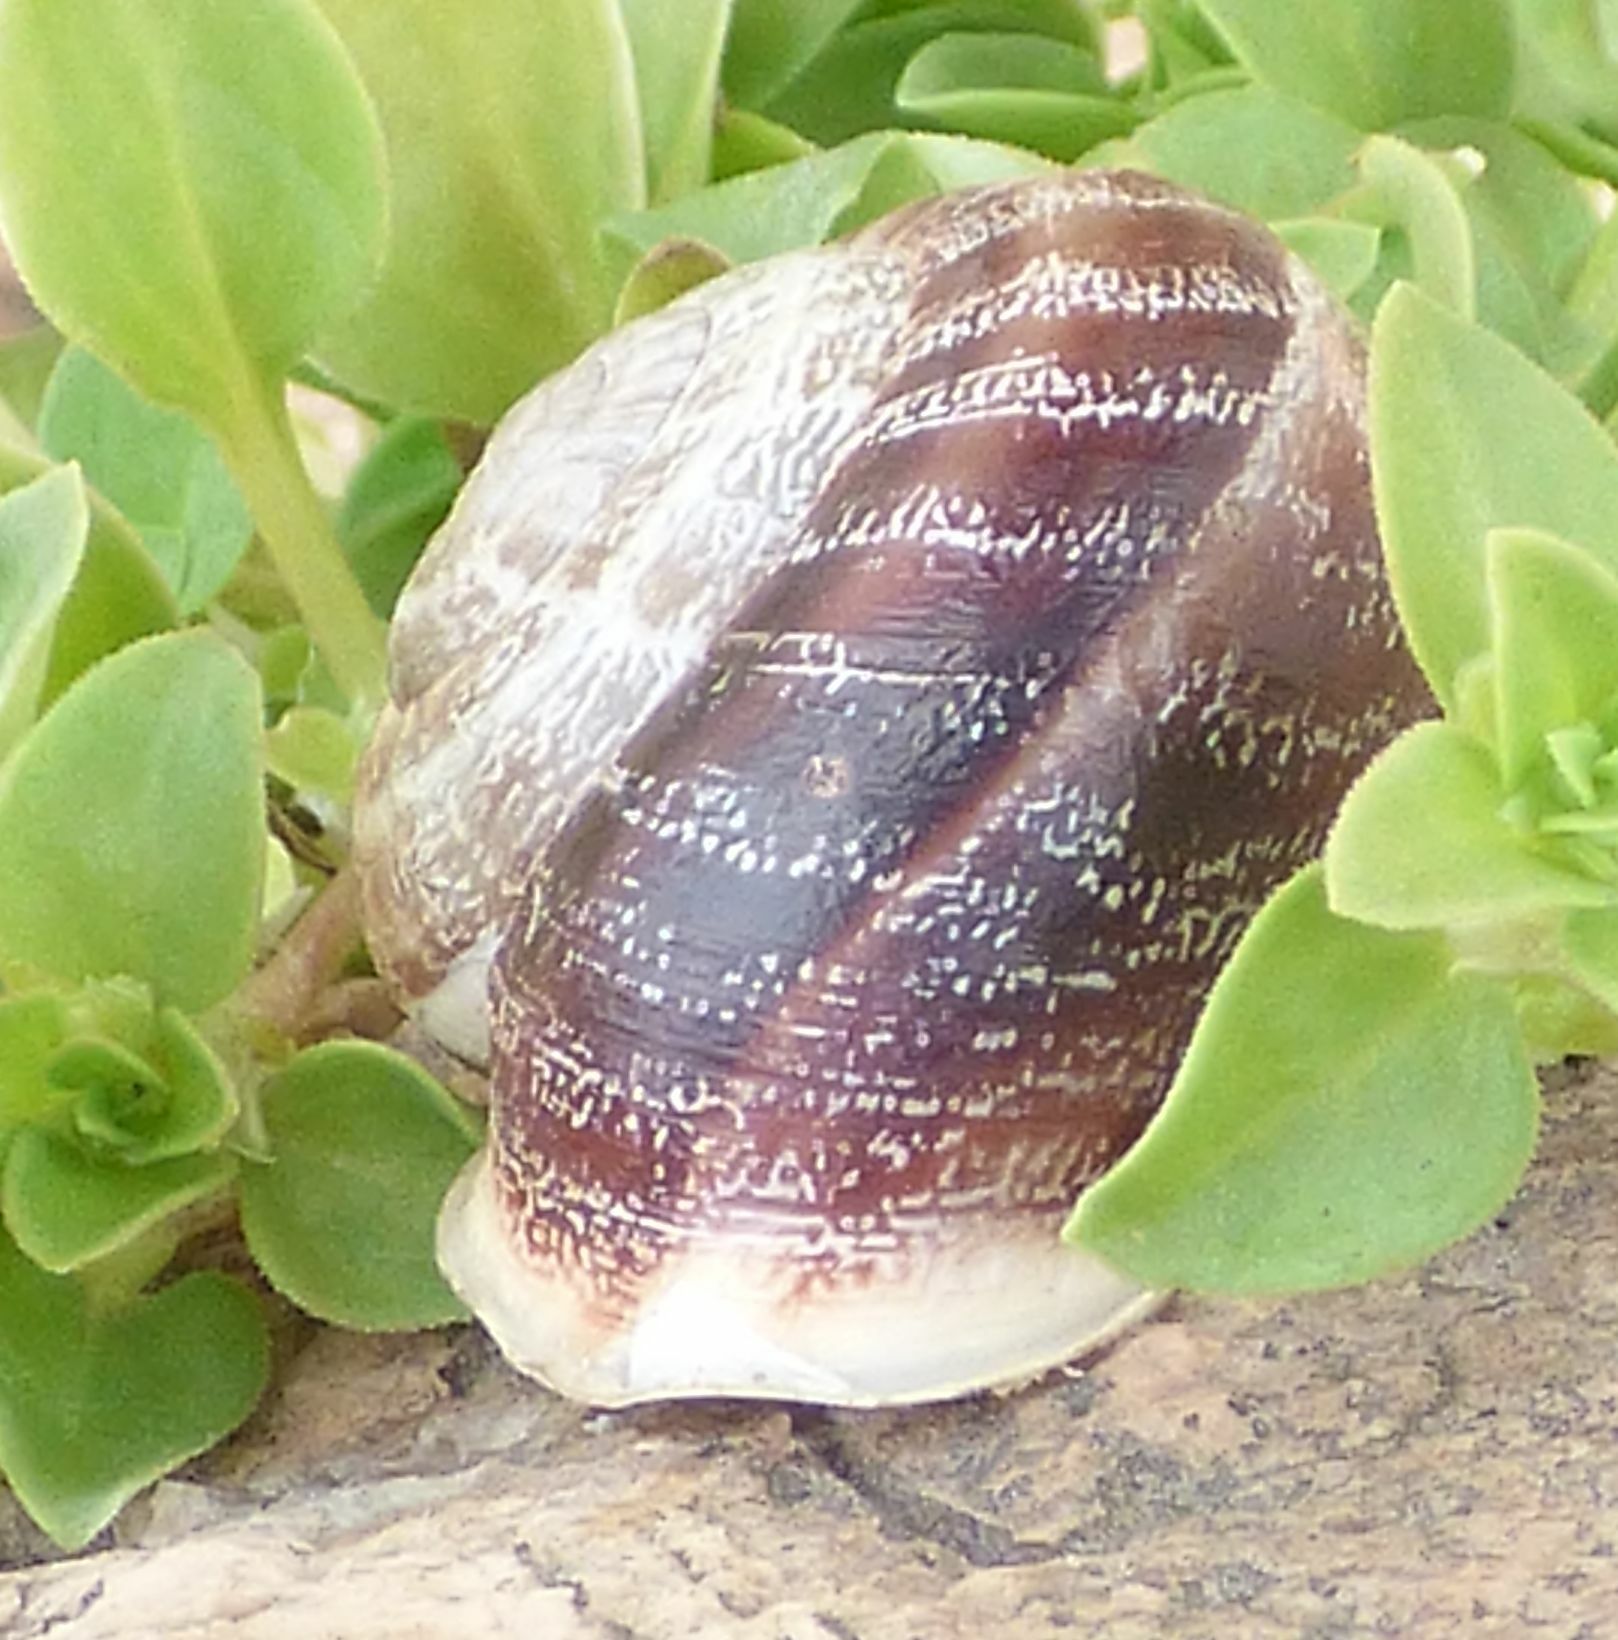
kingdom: Animalia
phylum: Mollusca
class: Gastropoda
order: Stylommatophora
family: Helicidae
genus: Eobania
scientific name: Eobania vermiculata
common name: Chocolateband snail
